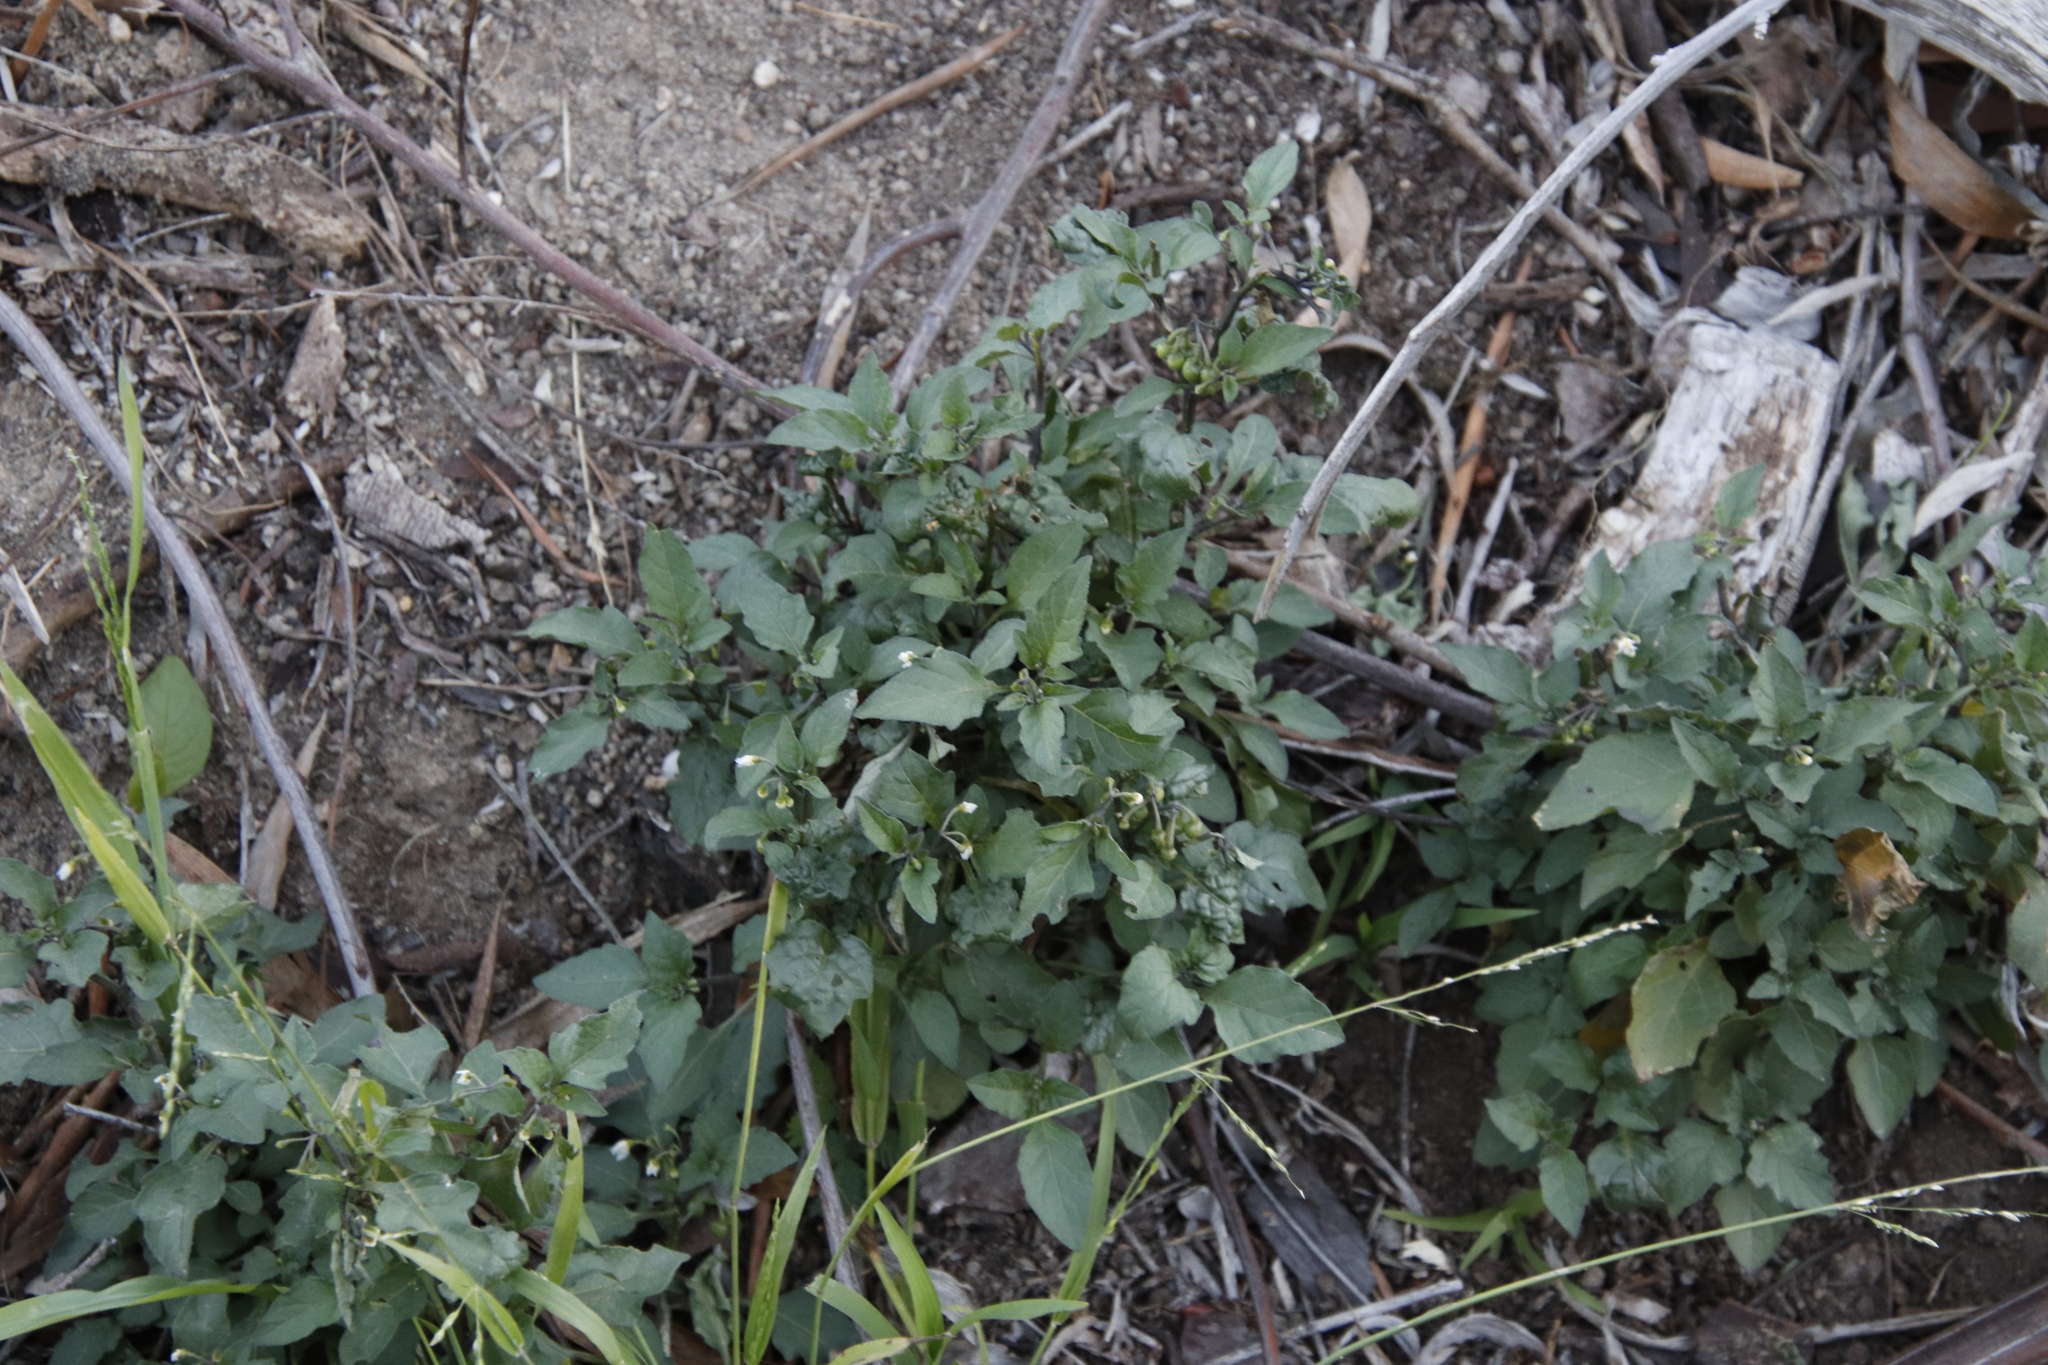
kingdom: Plantae
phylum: Tracheophyta
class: Magnoliopsida
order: Solanales
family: Solanaceae
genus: Solanum
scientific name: Solanum nigrum
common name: Black nightshade
